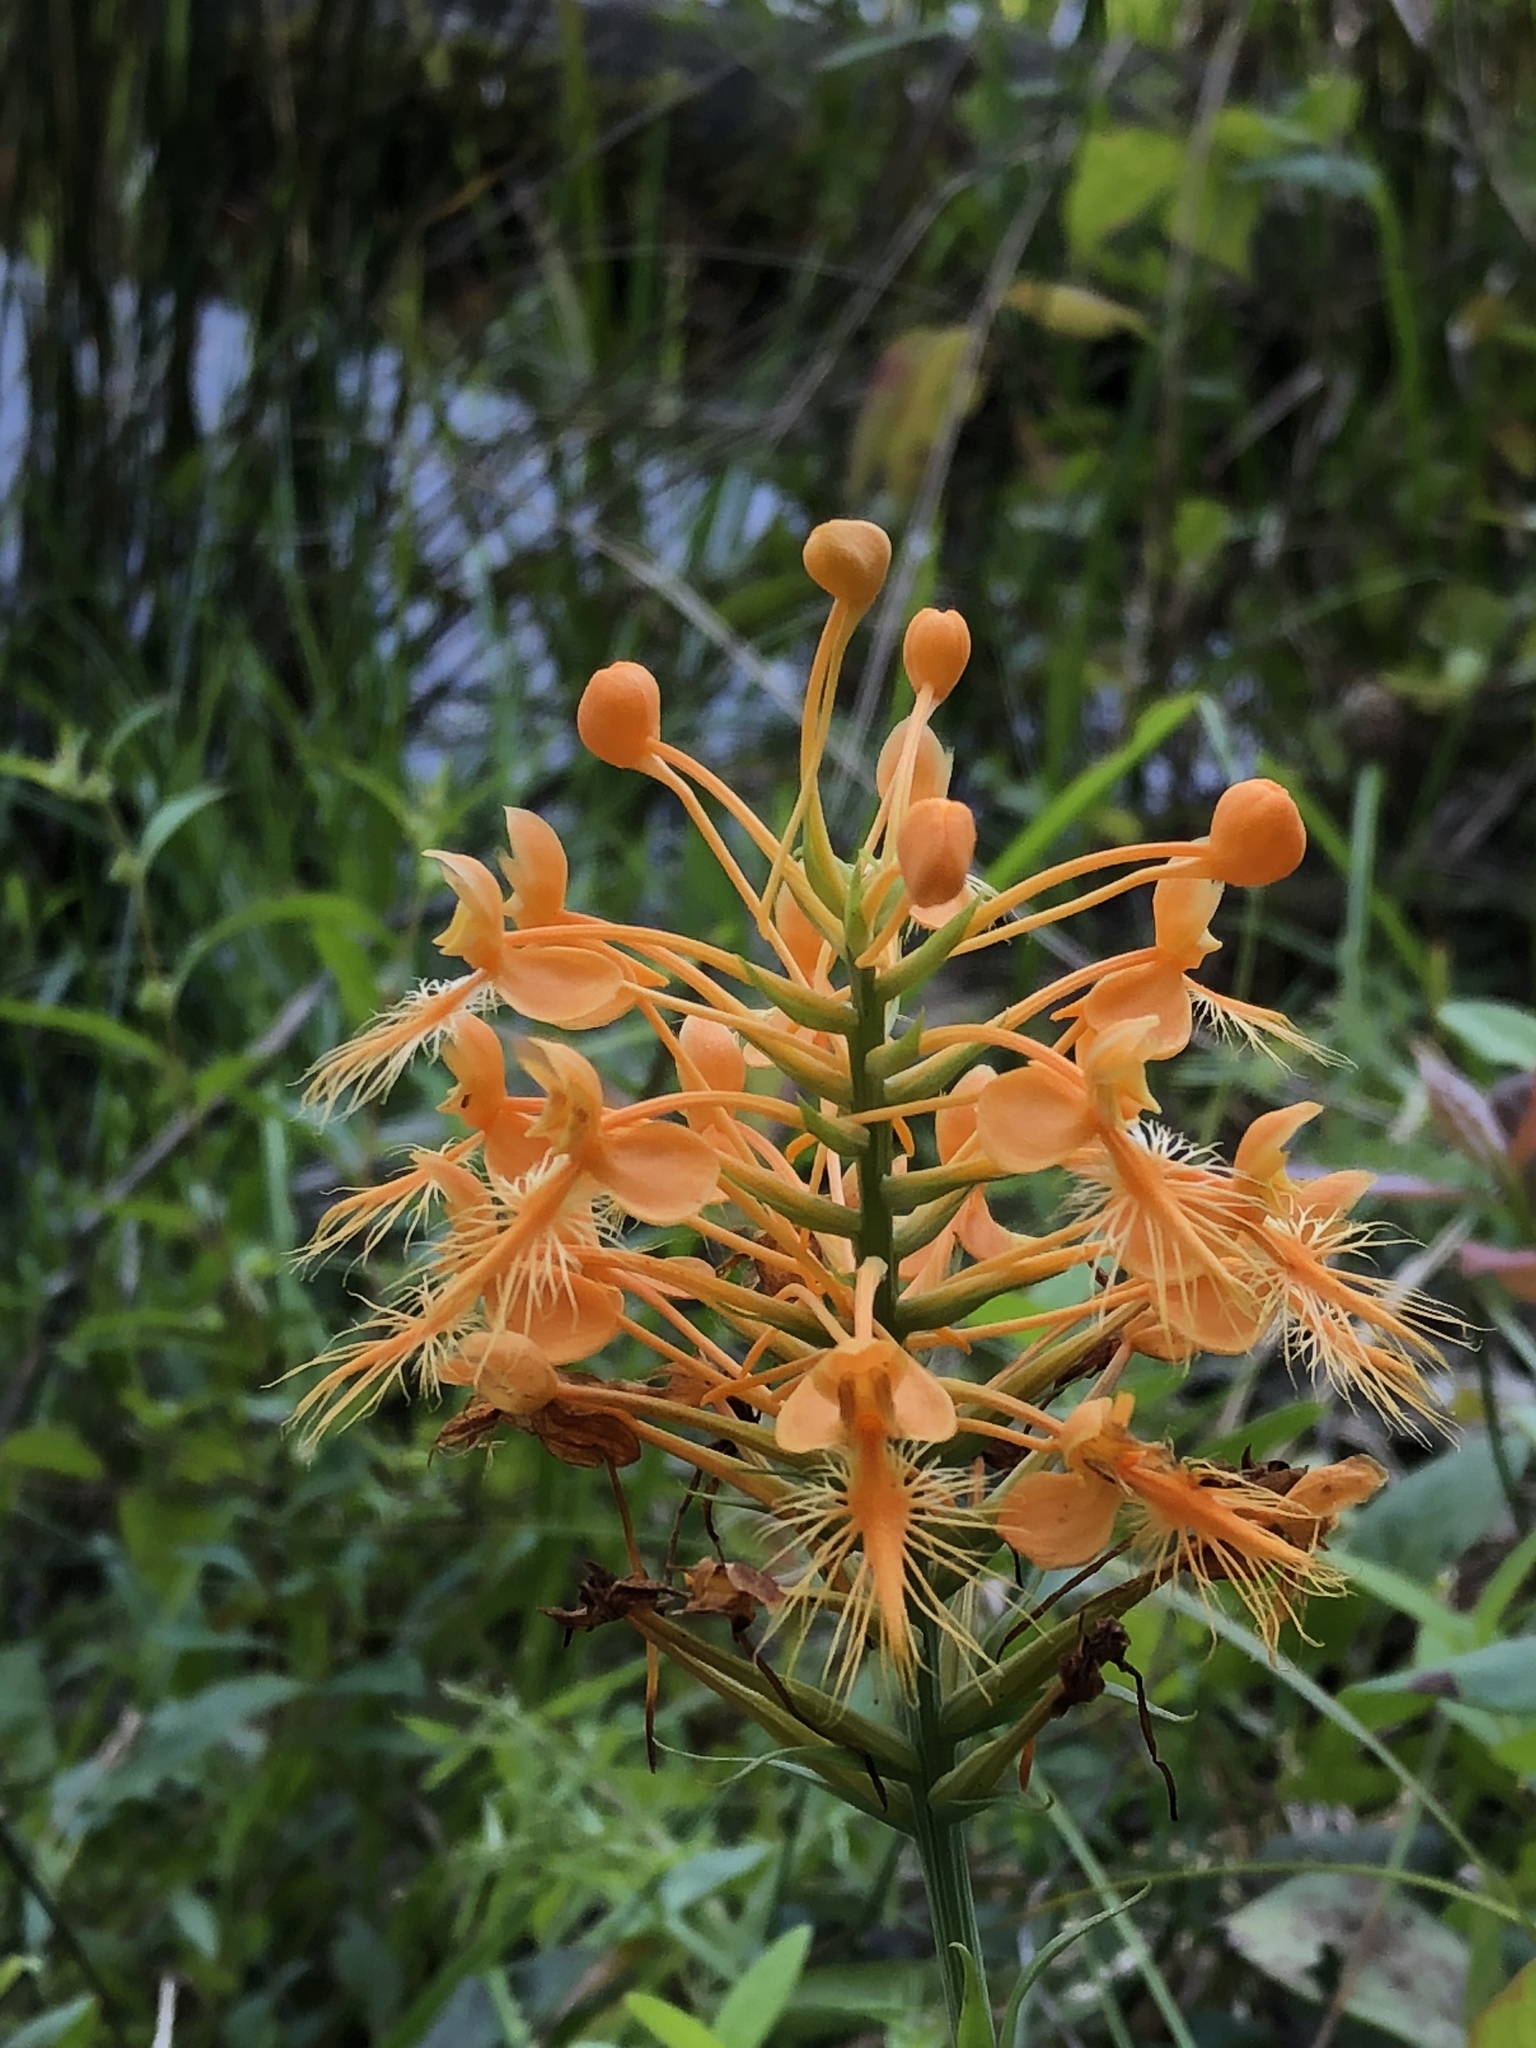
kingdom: Plantae
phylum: Tracheophyta
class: Liliopsida
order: Asparagales
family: Orchidaceae
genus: Platanthera
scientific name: Platanthera ciliaris
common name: Yellow fringed orchid
